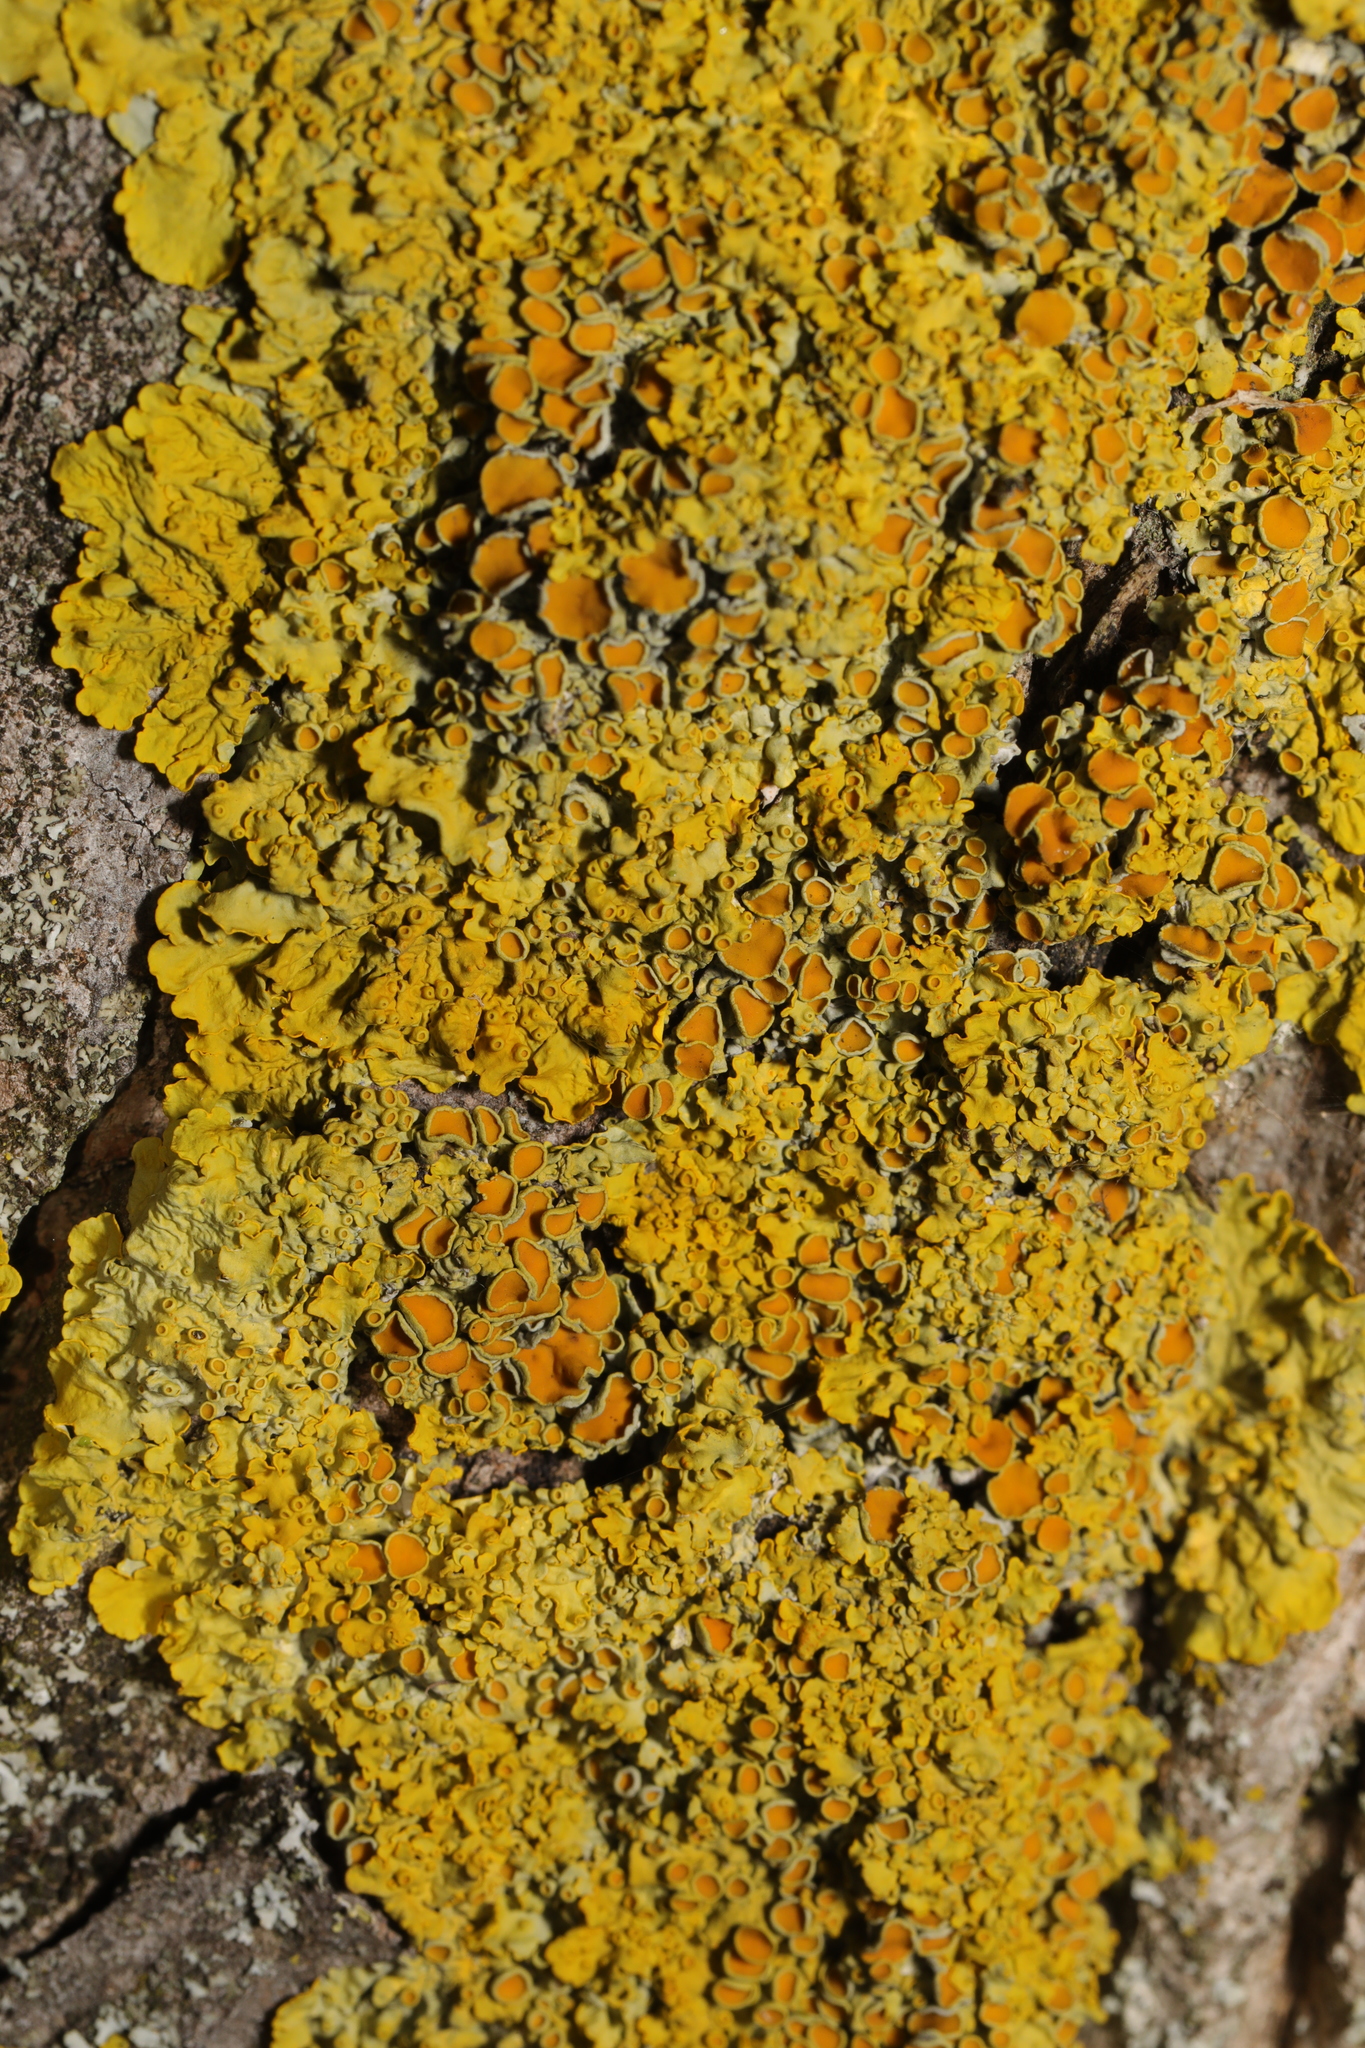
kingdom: Fungi
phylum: Ascomycota
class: Lecanoromycetes
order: Teloschistales
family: Teloschistaceae
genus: Xanthoria
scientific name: Xanthoria parietina
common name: Common orange lichen
